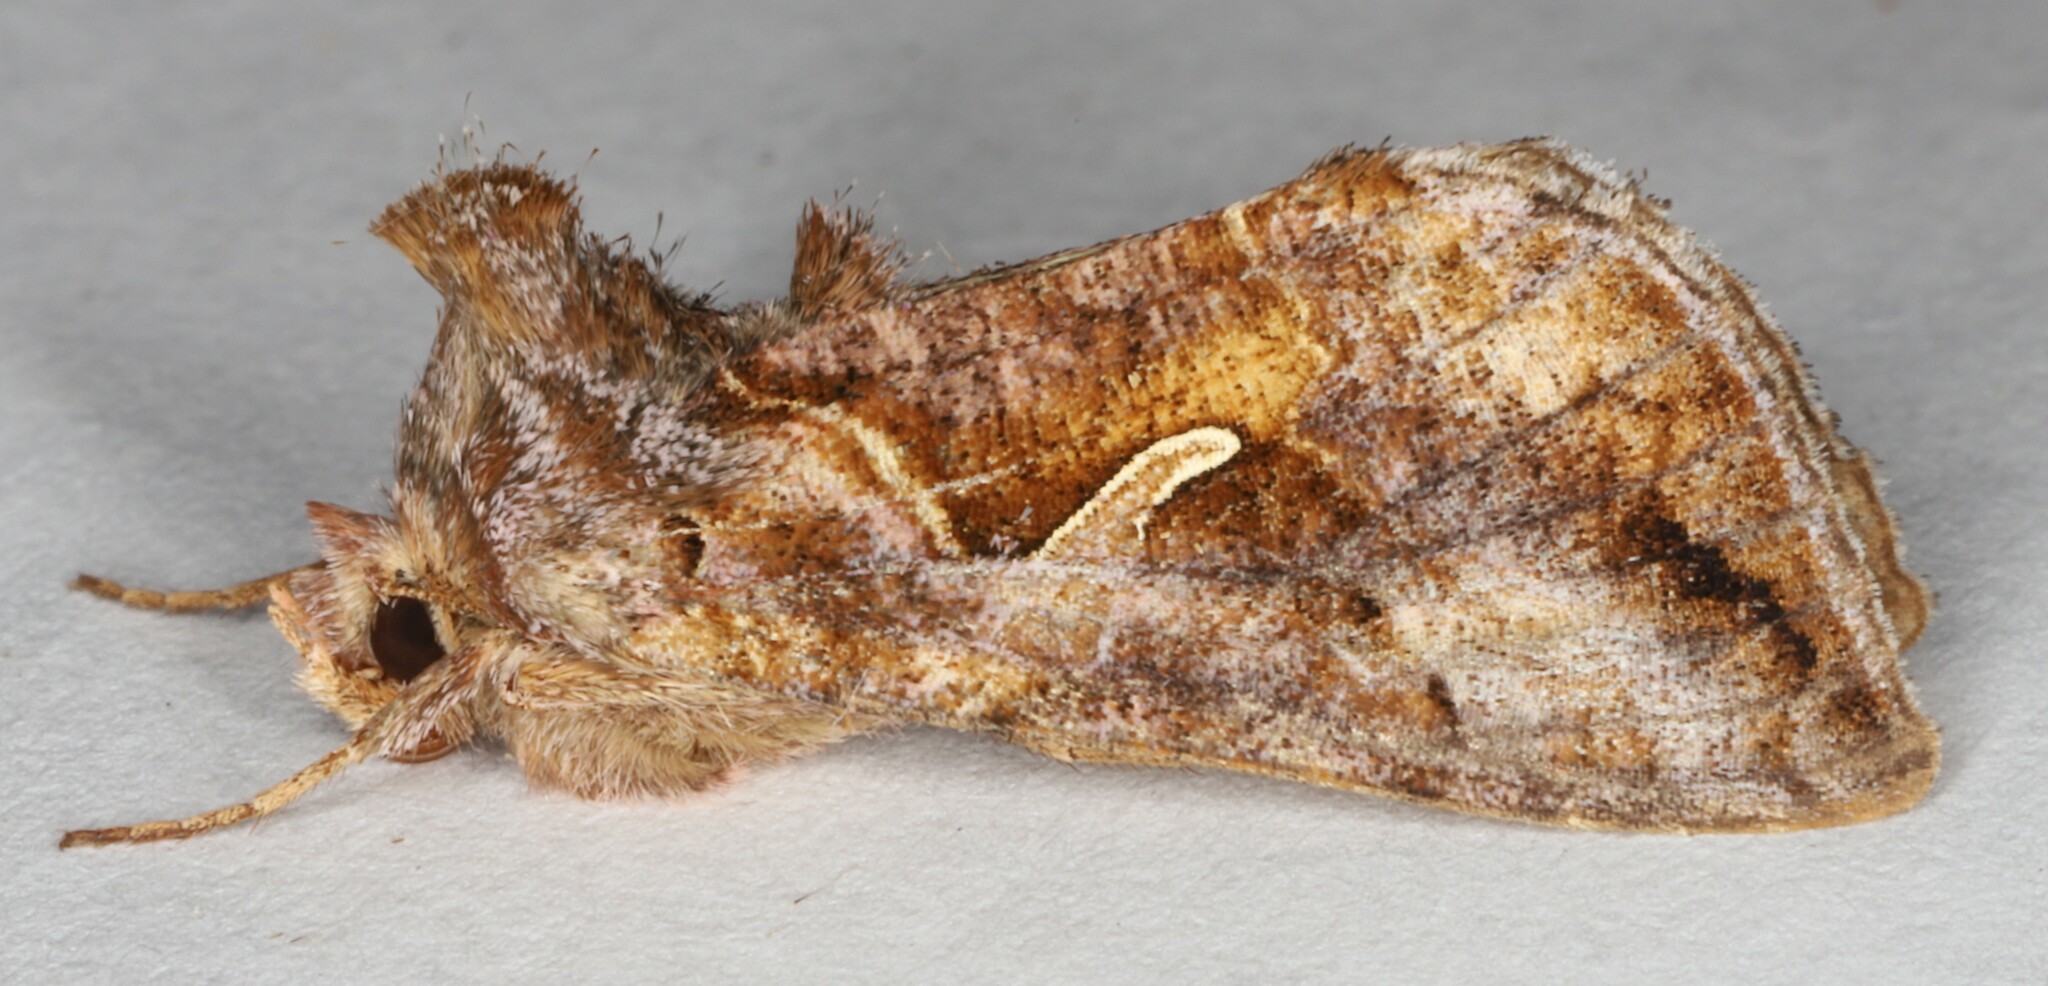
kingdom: Animalia
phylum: Arthropoda
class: Insecta
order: Lepidoptera
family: Noctuidae
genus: Anagrapha
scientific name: Anagrapha falcifera
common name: Celery looper
